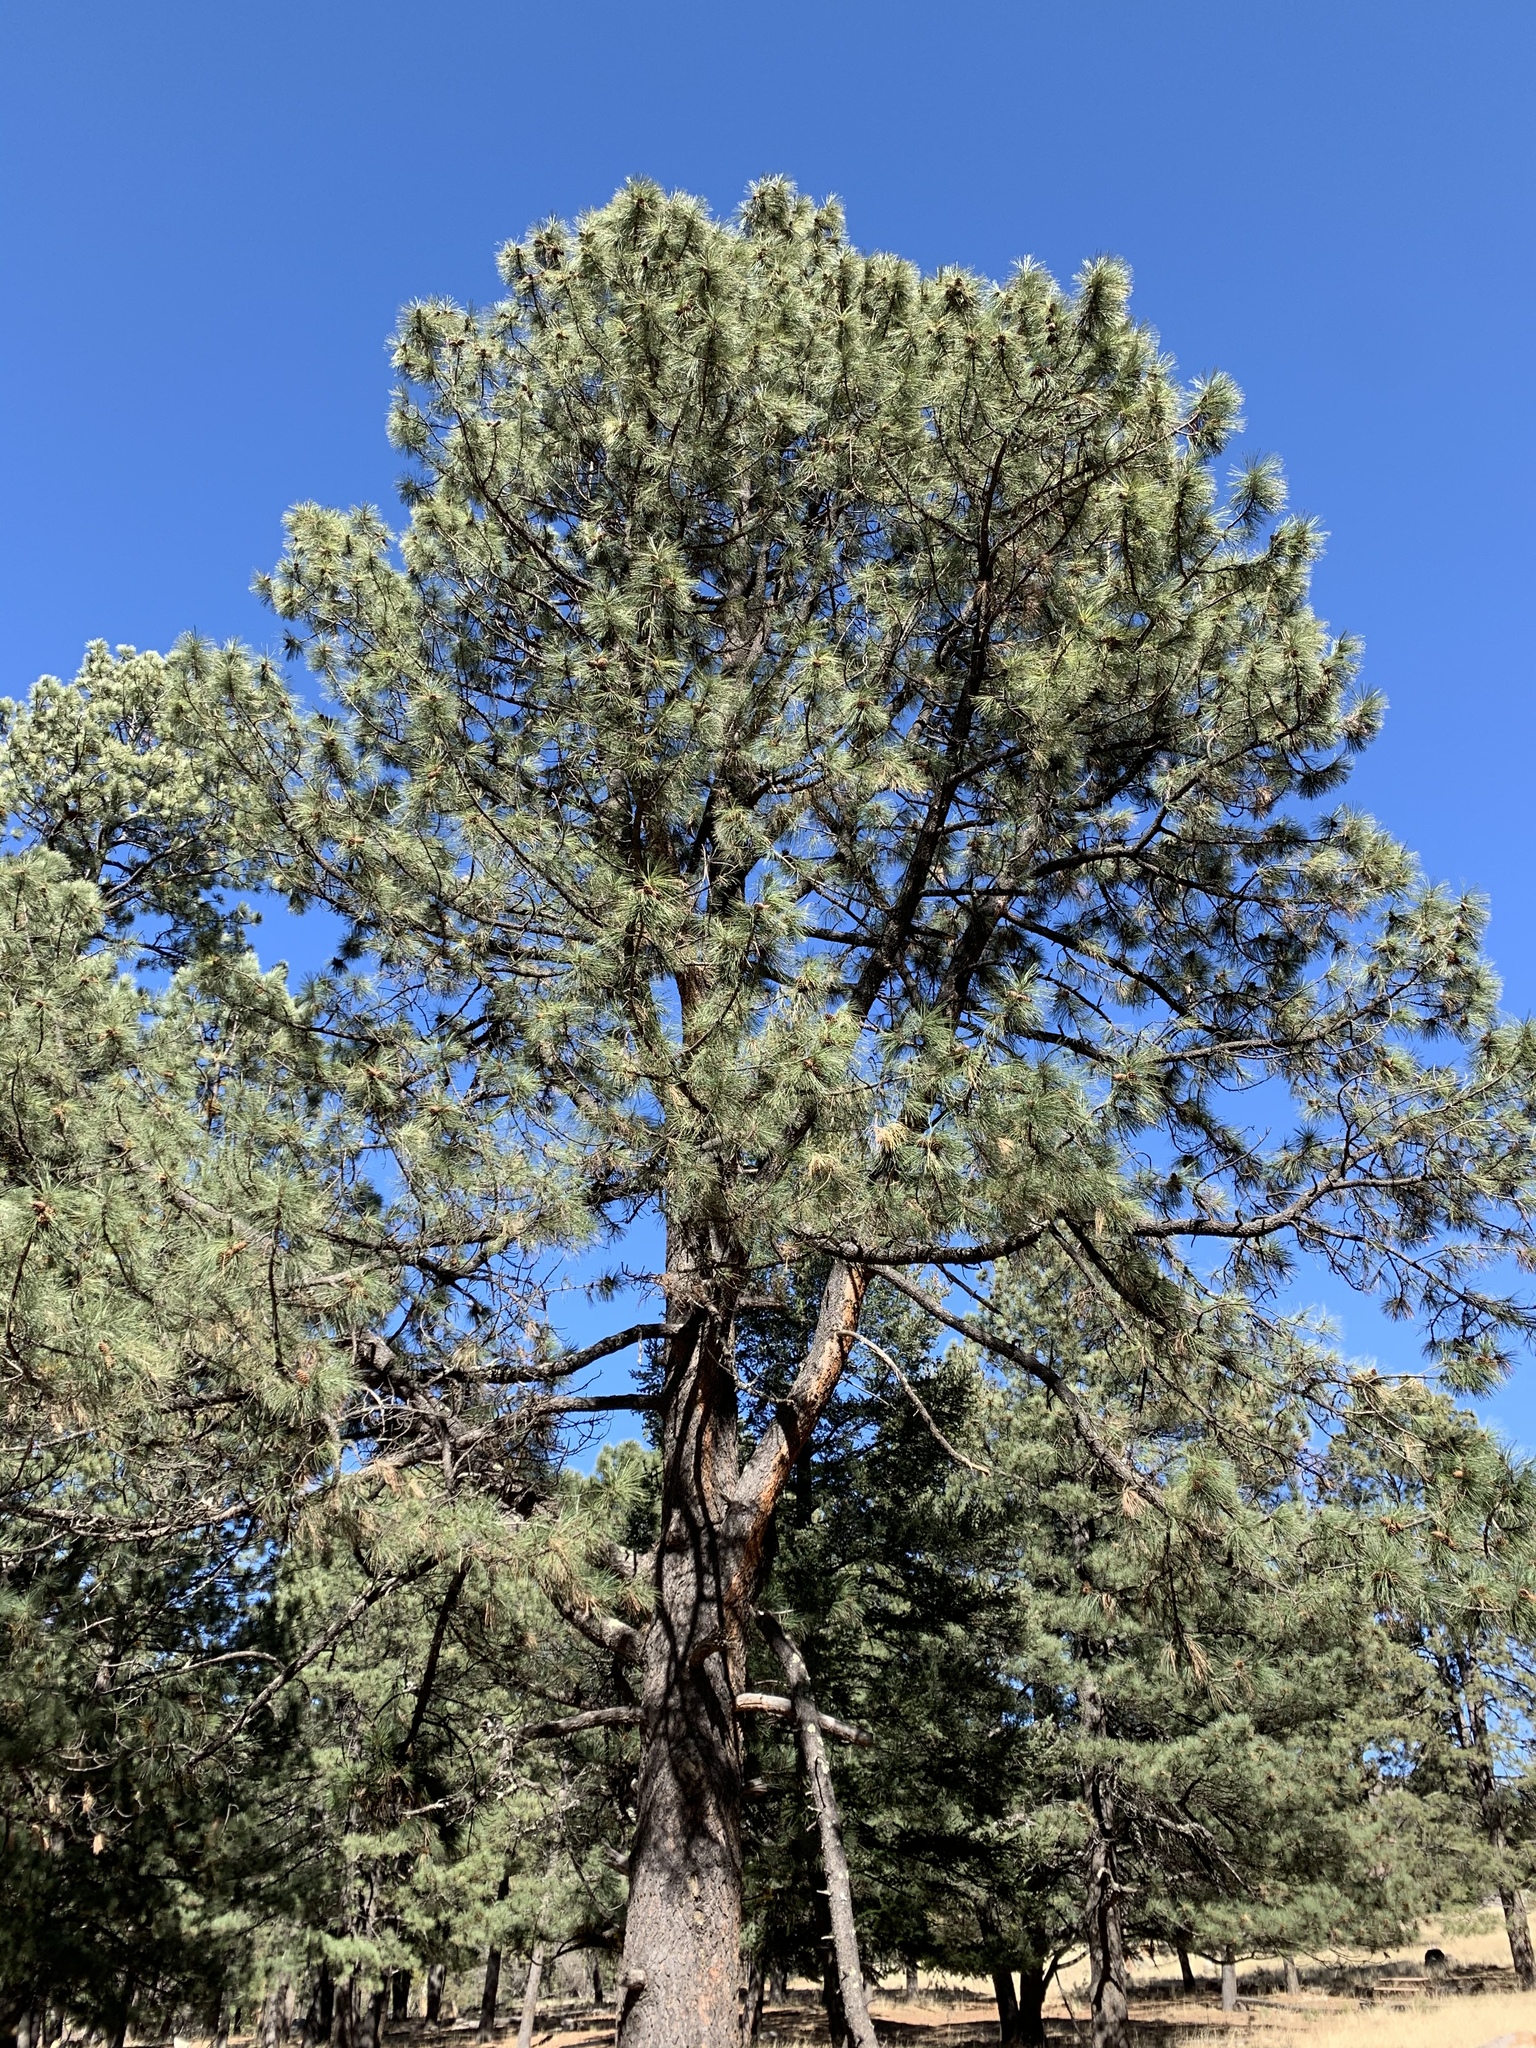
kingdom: Plantae
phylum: Tracheophyta
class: Pinopsida
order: Pinales
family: Pinaceae
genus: Pinus
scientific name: Pinus ponderosa
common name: Western yellow-pine
